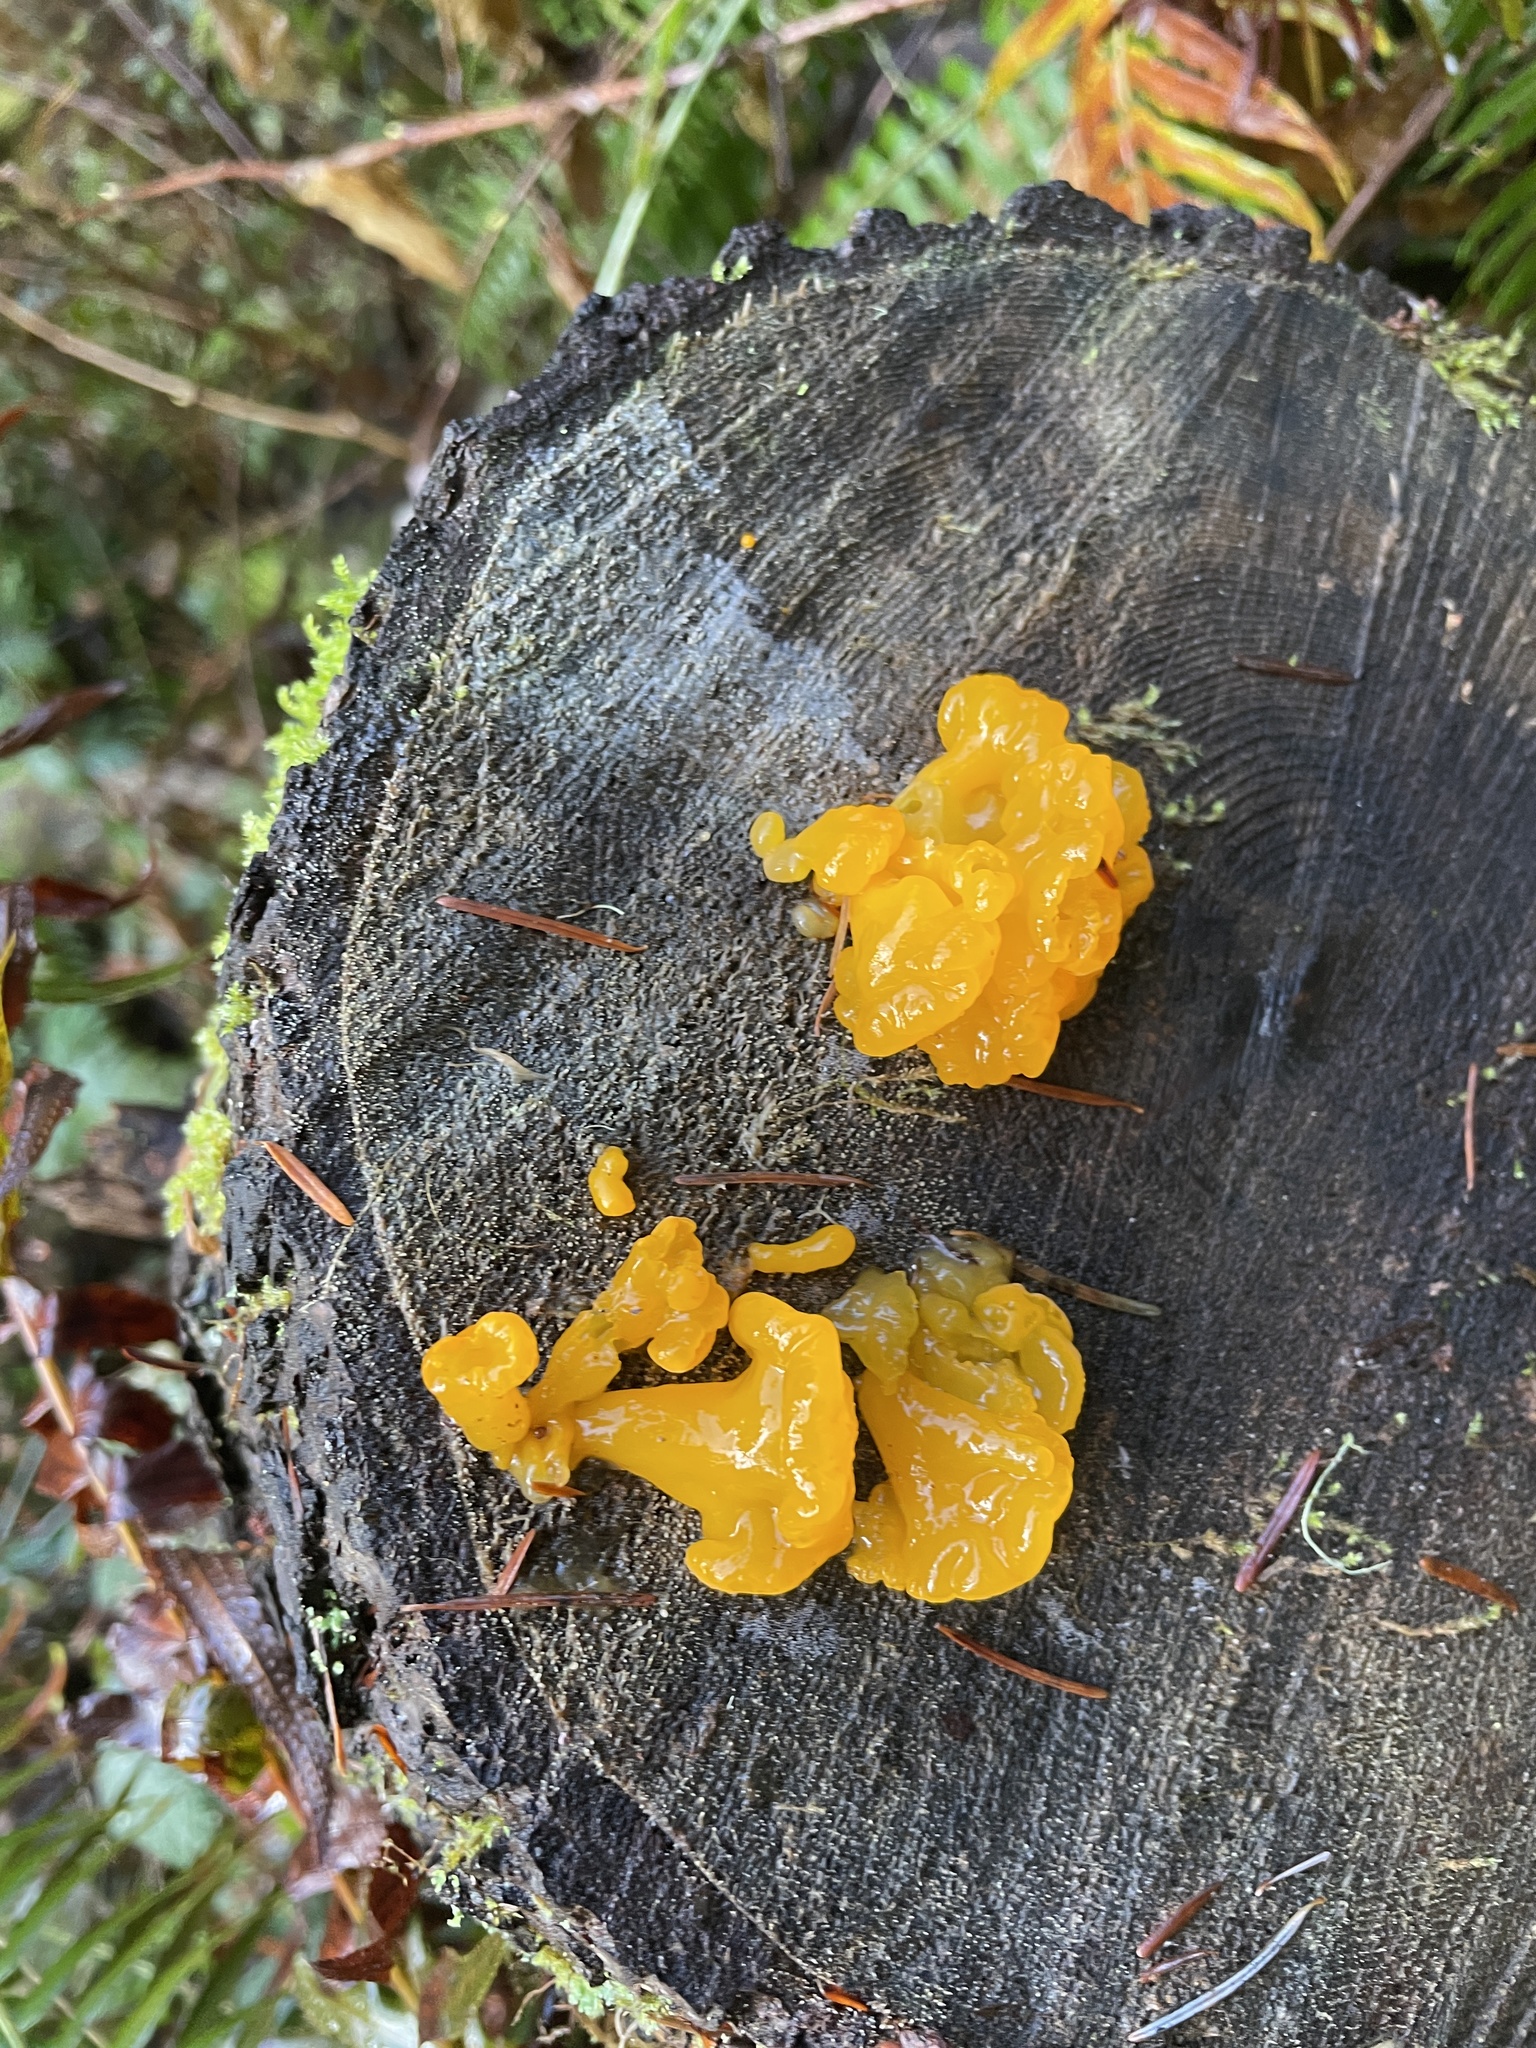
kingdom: Fungi
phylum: Basidiomycota
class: Dacrymycetes
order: Dacrymycetales
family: Dacrymycetaceae
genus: Dacrymyces
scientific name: Dacrymyces chrysospermus
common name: Orange jelly spot
